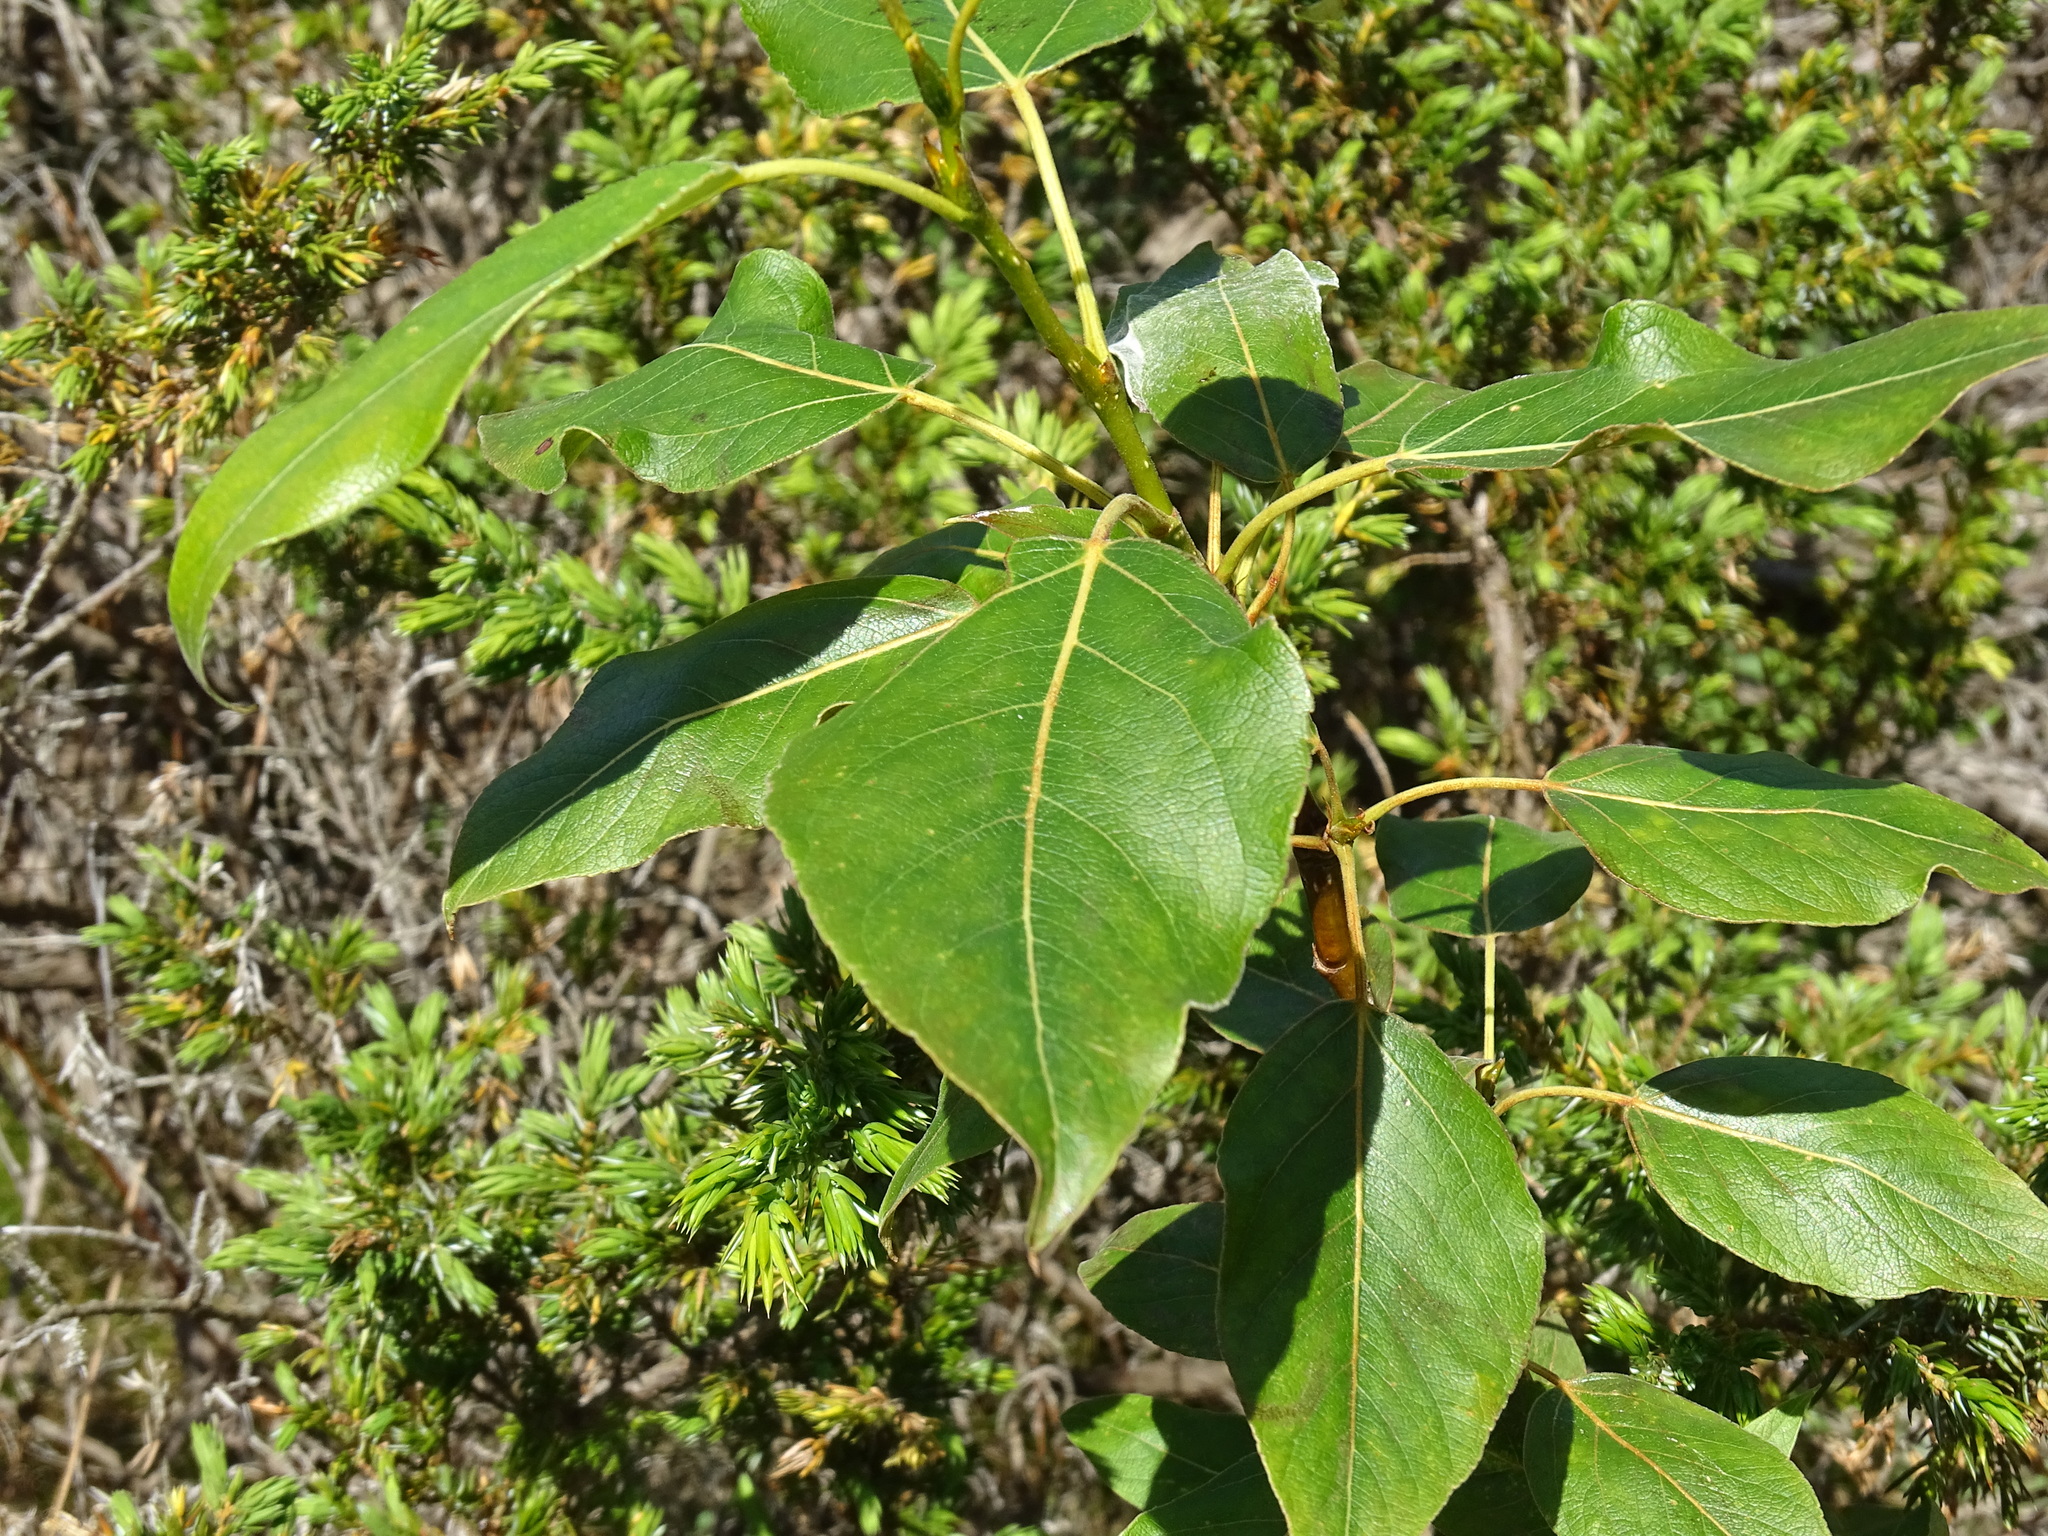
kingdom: Plantae
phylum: Tracheophyta
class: Magnoliopsida
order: Malpighiales
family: Salicaceae
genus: Populus
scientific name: Populus balsamifera
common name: Balsam poplar
